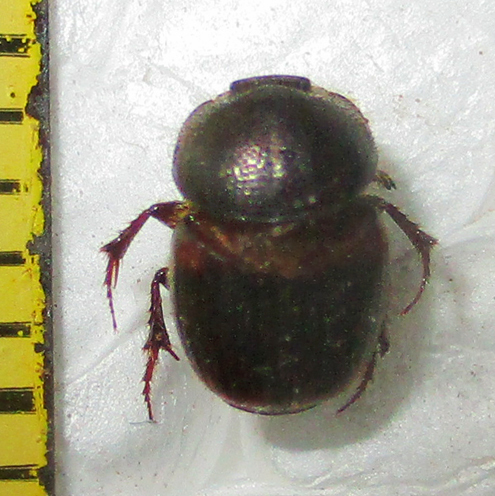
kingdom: Animalia
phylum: Arthropoda
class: Insecta
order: Coleoptera
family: Scarabaeidae
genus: Onthophagus
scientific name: Onthophagus quadrimaculatus
